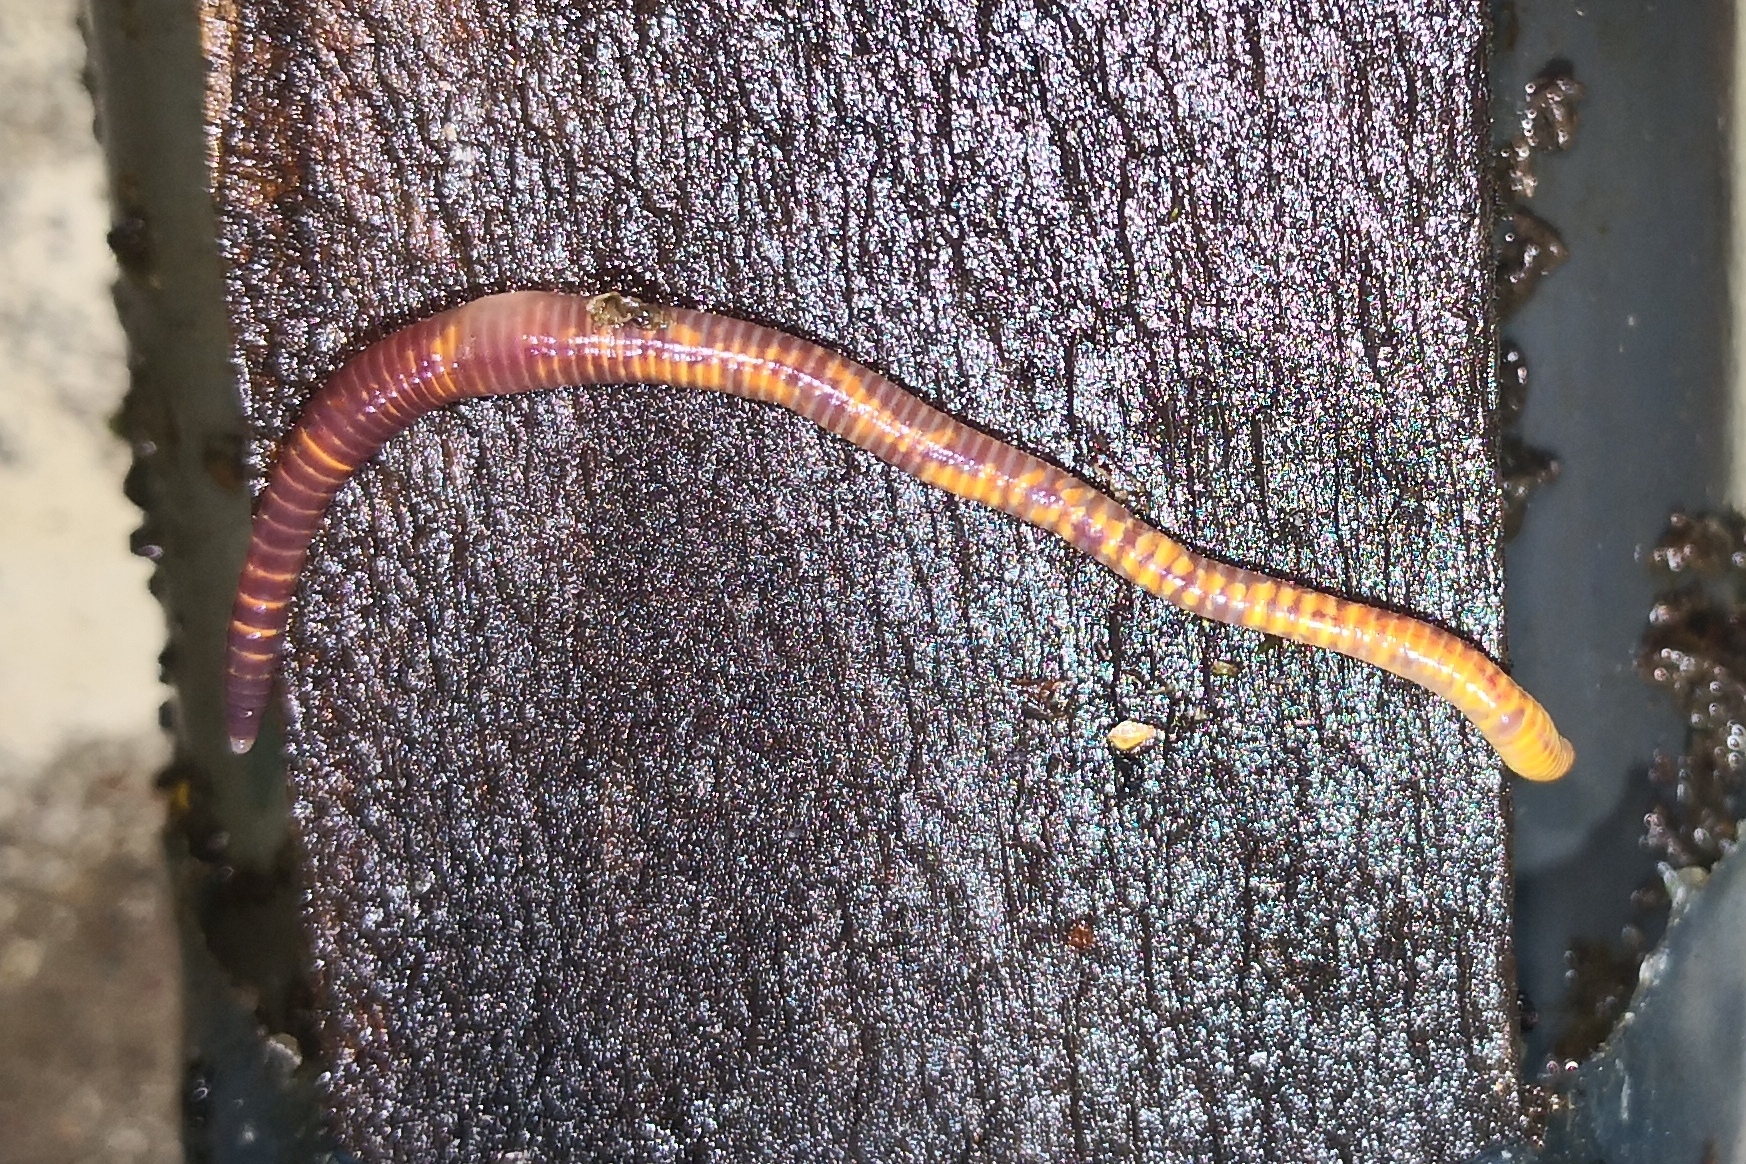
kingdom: Animalia
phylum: Annelida
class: Clitellata
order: Crassiclitellata
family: Lumbricidae
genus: Eisenia
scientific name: Eisenia fetida
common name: Red wiggler
